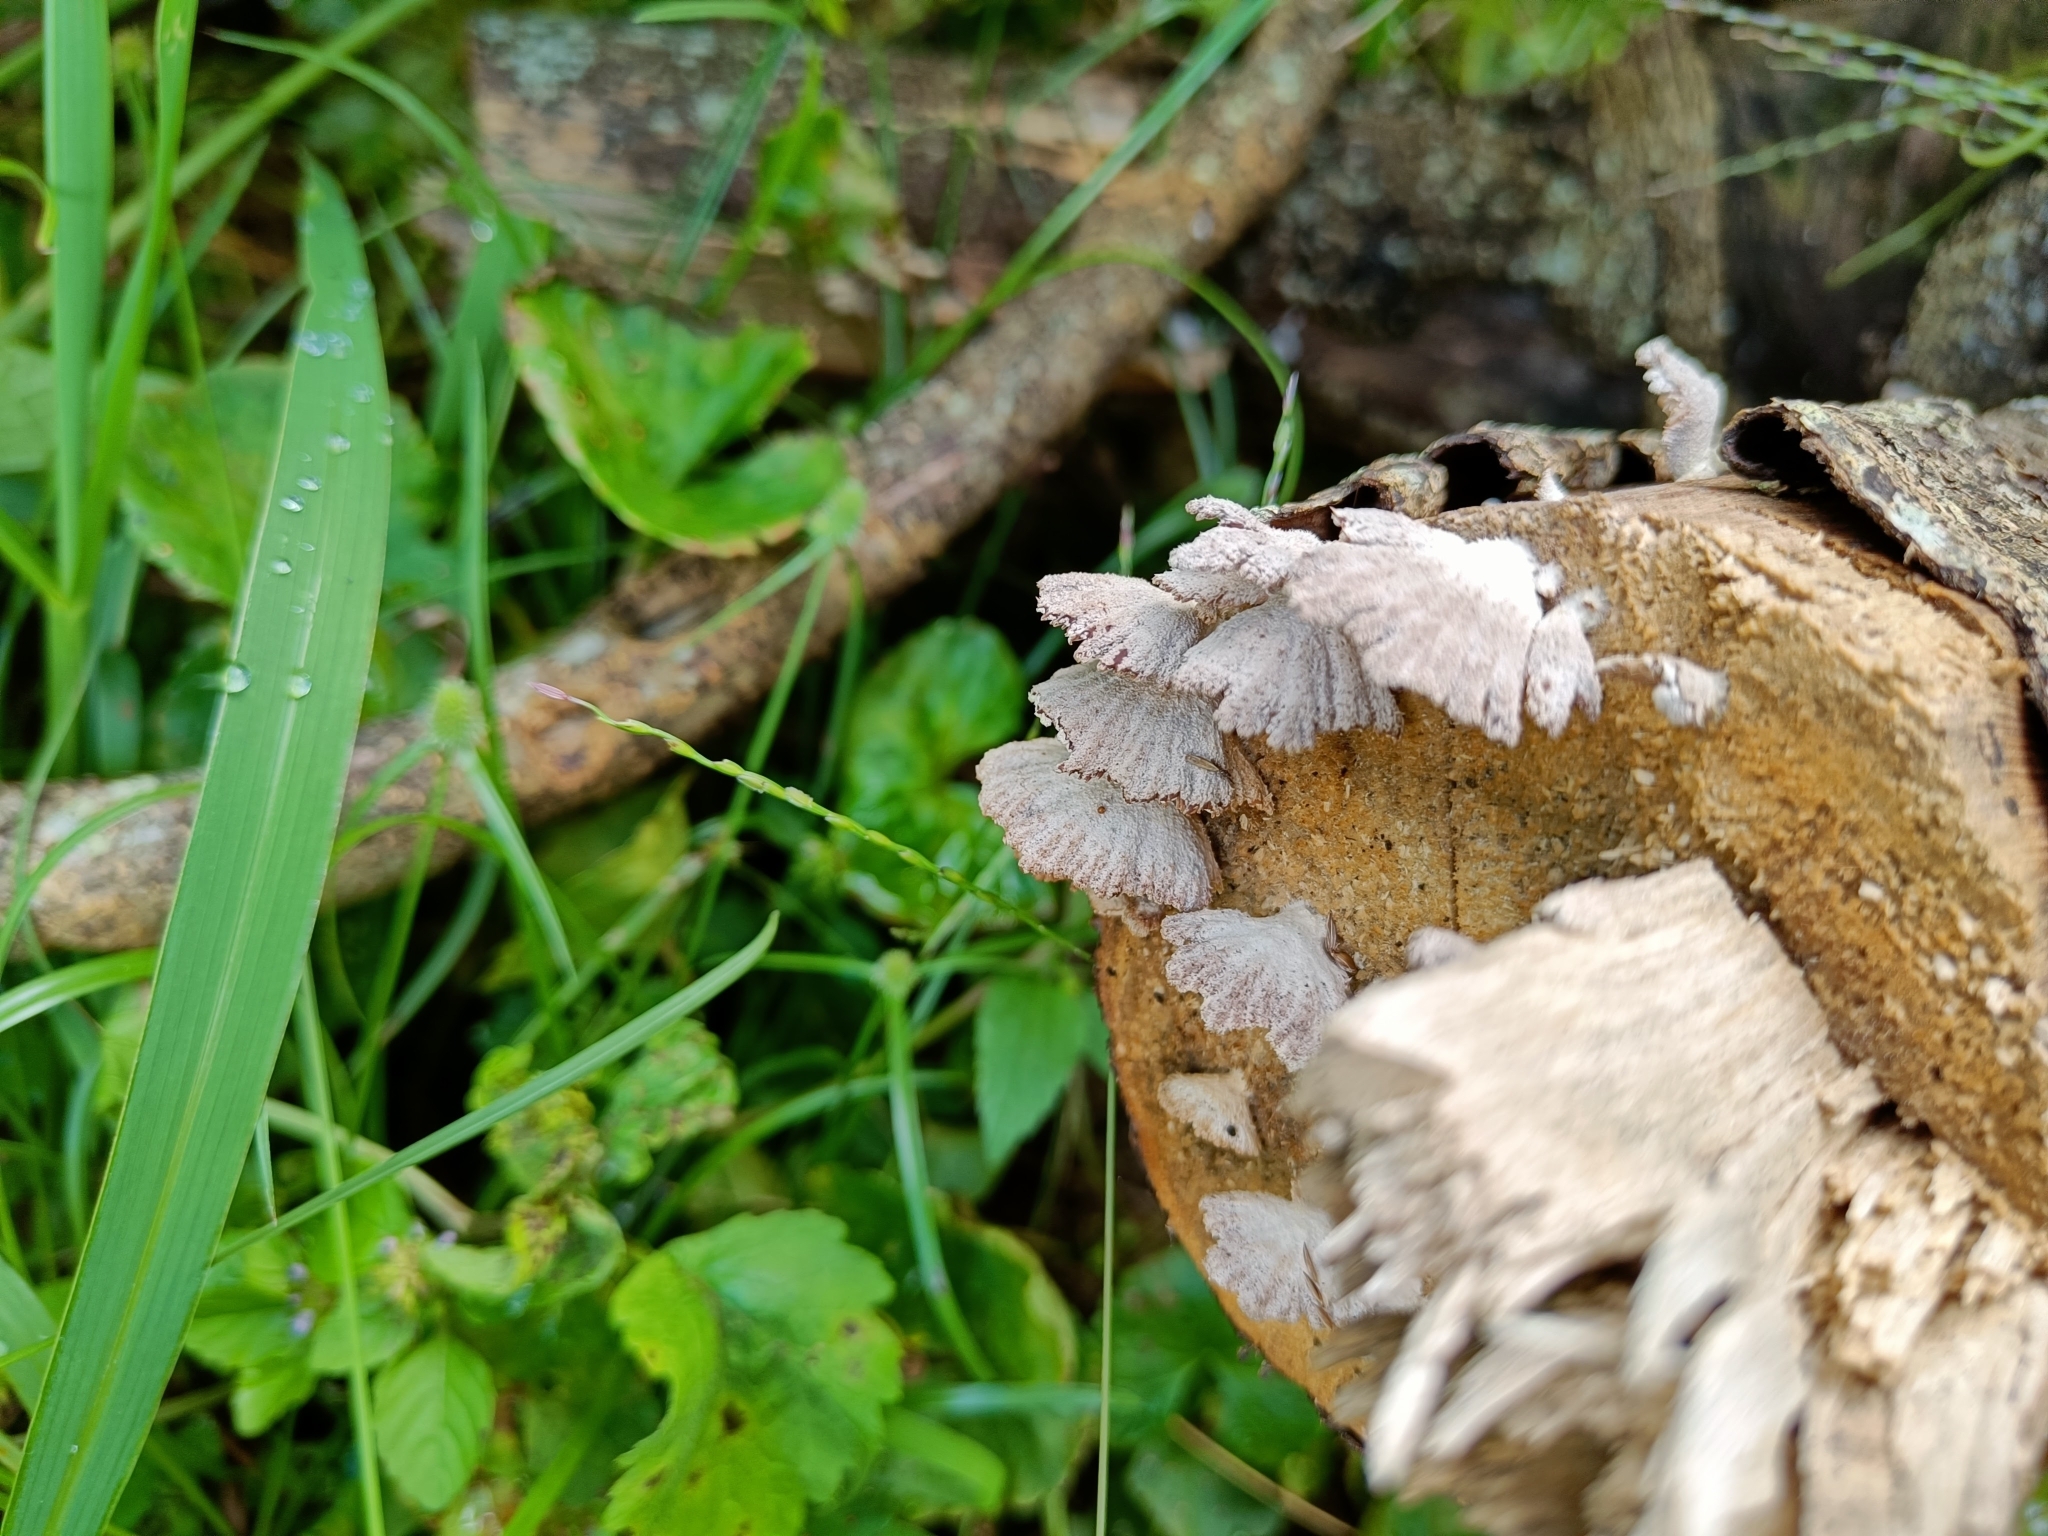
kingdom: Fungi
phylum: Basidiomycota
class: Agaricomycetes
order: Agaricales
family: Schizophyllaceae
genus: Schizophyllum
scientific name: Schizophyllum commune
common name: Common porecrust
